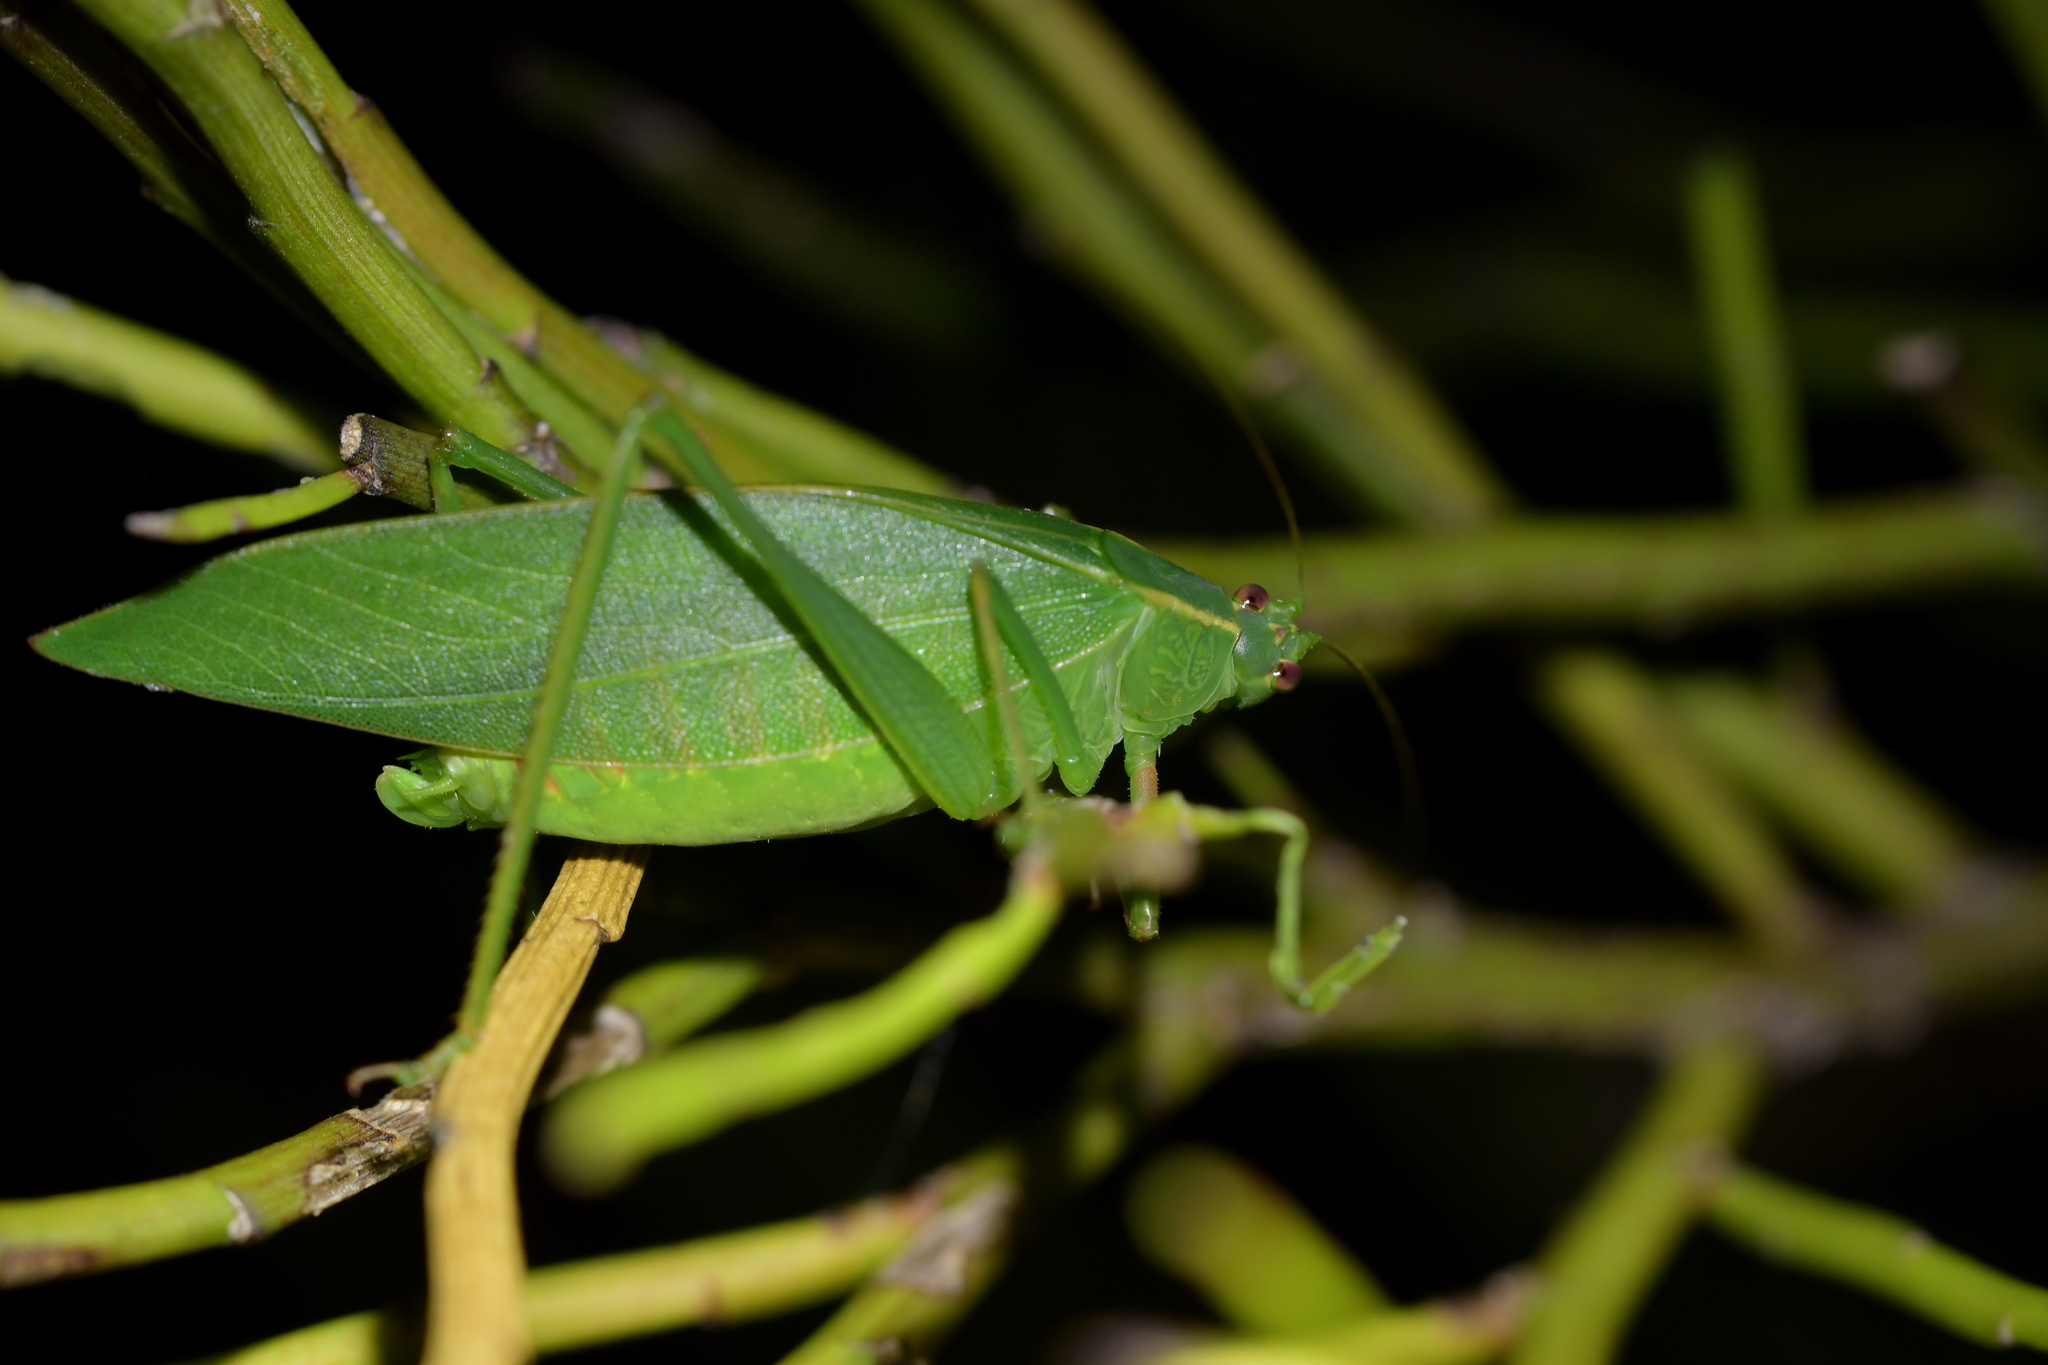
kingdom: Animalia
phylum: Arthropoda
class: Insecta
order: Orthoptera
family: Tettigoniidae
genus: Caedicia
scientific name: Caedicia simplex
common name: Common garden katydid
